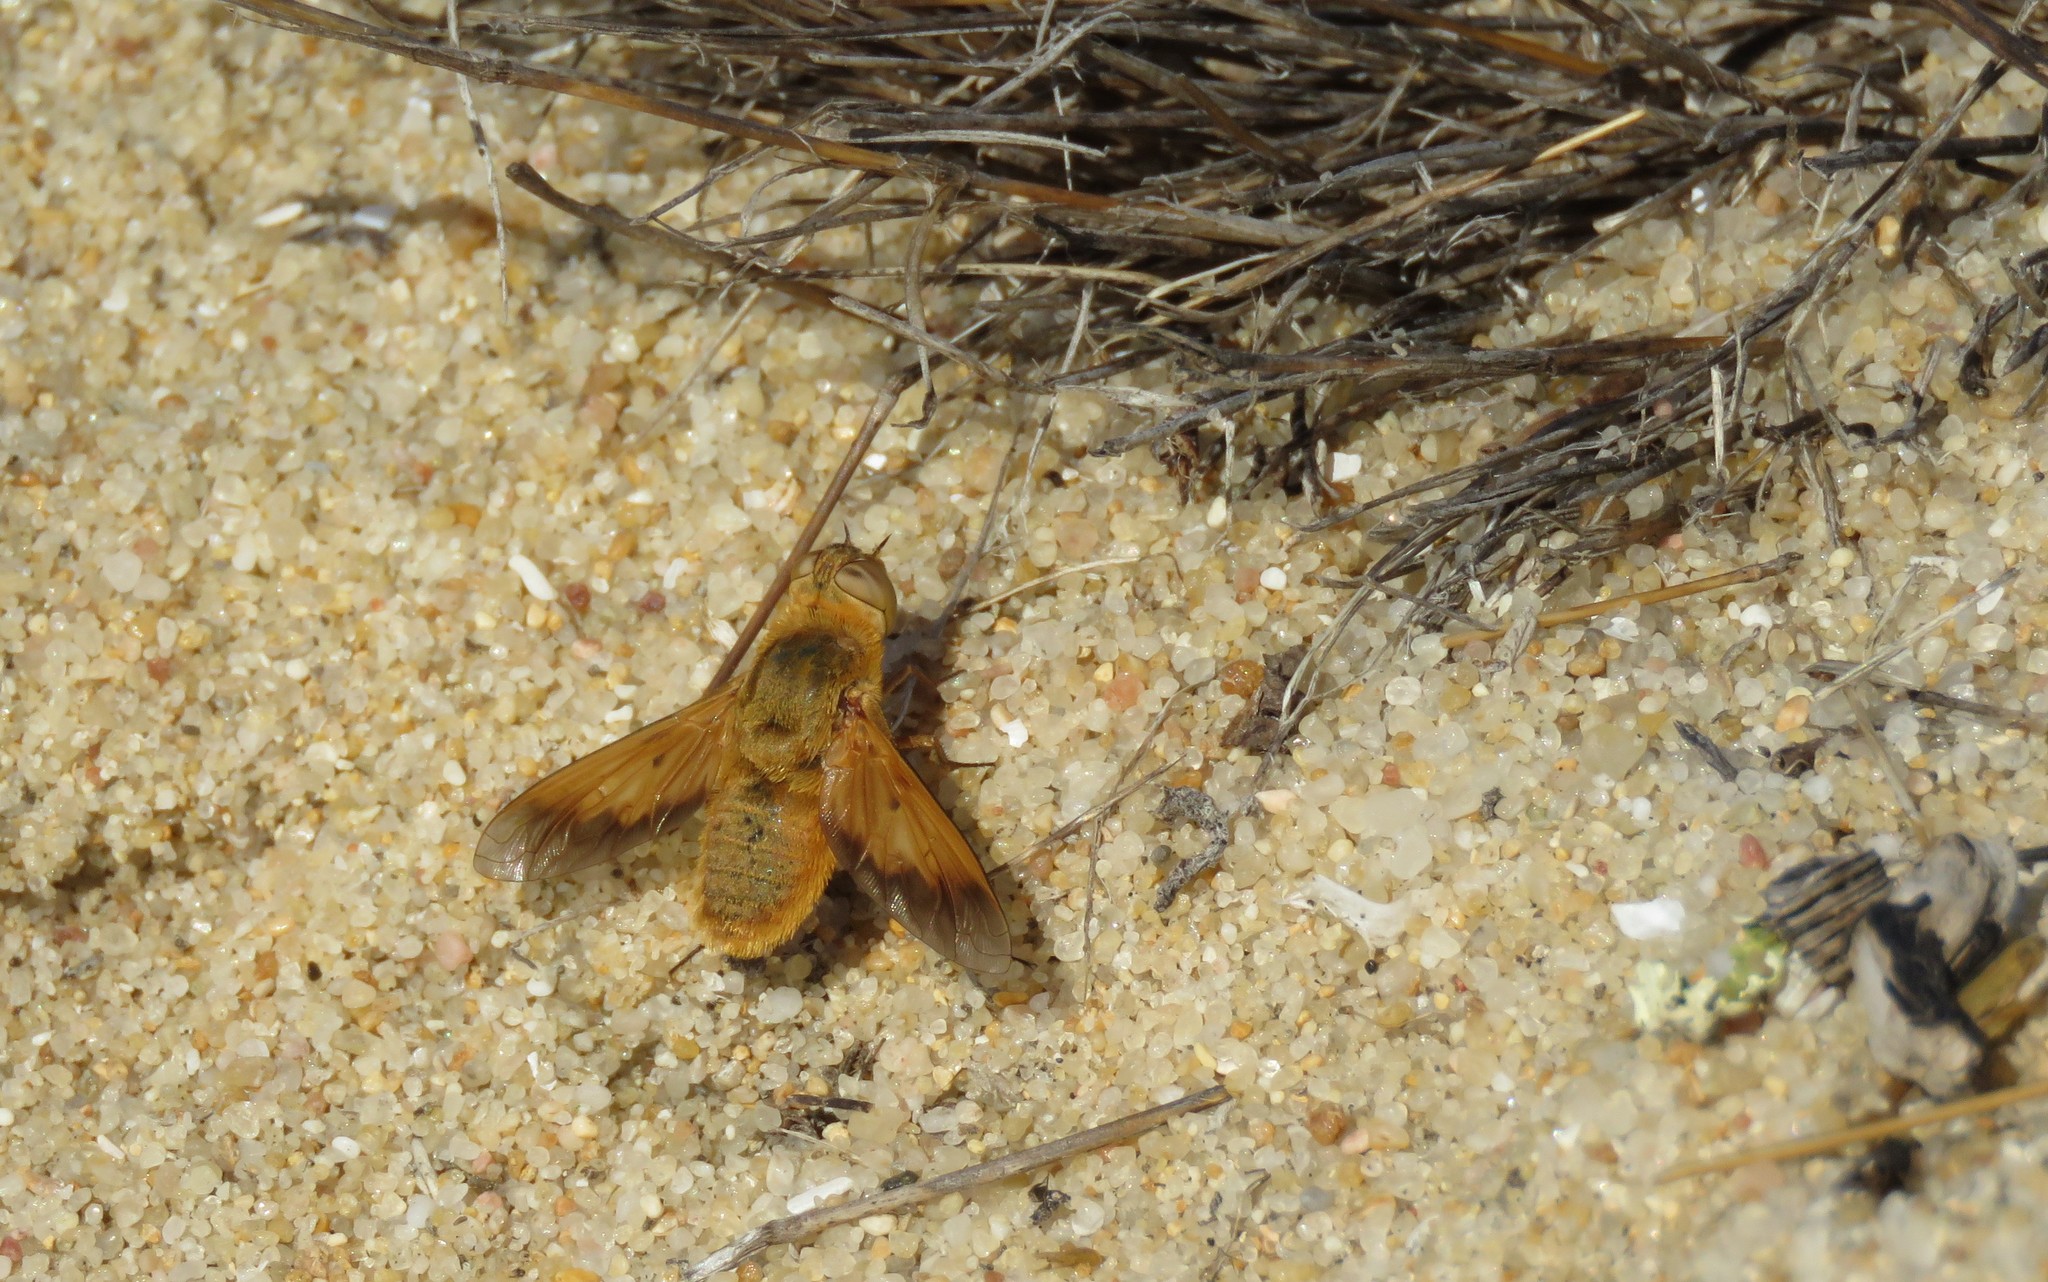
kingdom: Animalia
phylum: Arthropoda
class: Insecta
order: Diptera
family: Bombyliidae
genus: Heteralonia
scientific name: Heteralonia aeaca
